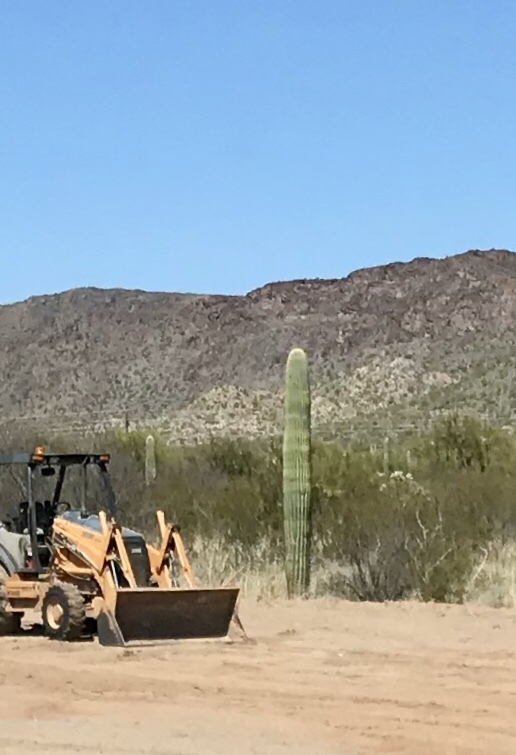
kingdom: Plantae
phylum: Tracheophyta
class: Magnoliopsida
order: Caryophyllales
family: Cactaceae
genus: Carnegiea
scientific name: Carnegiea gigantea
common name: Saguaro
